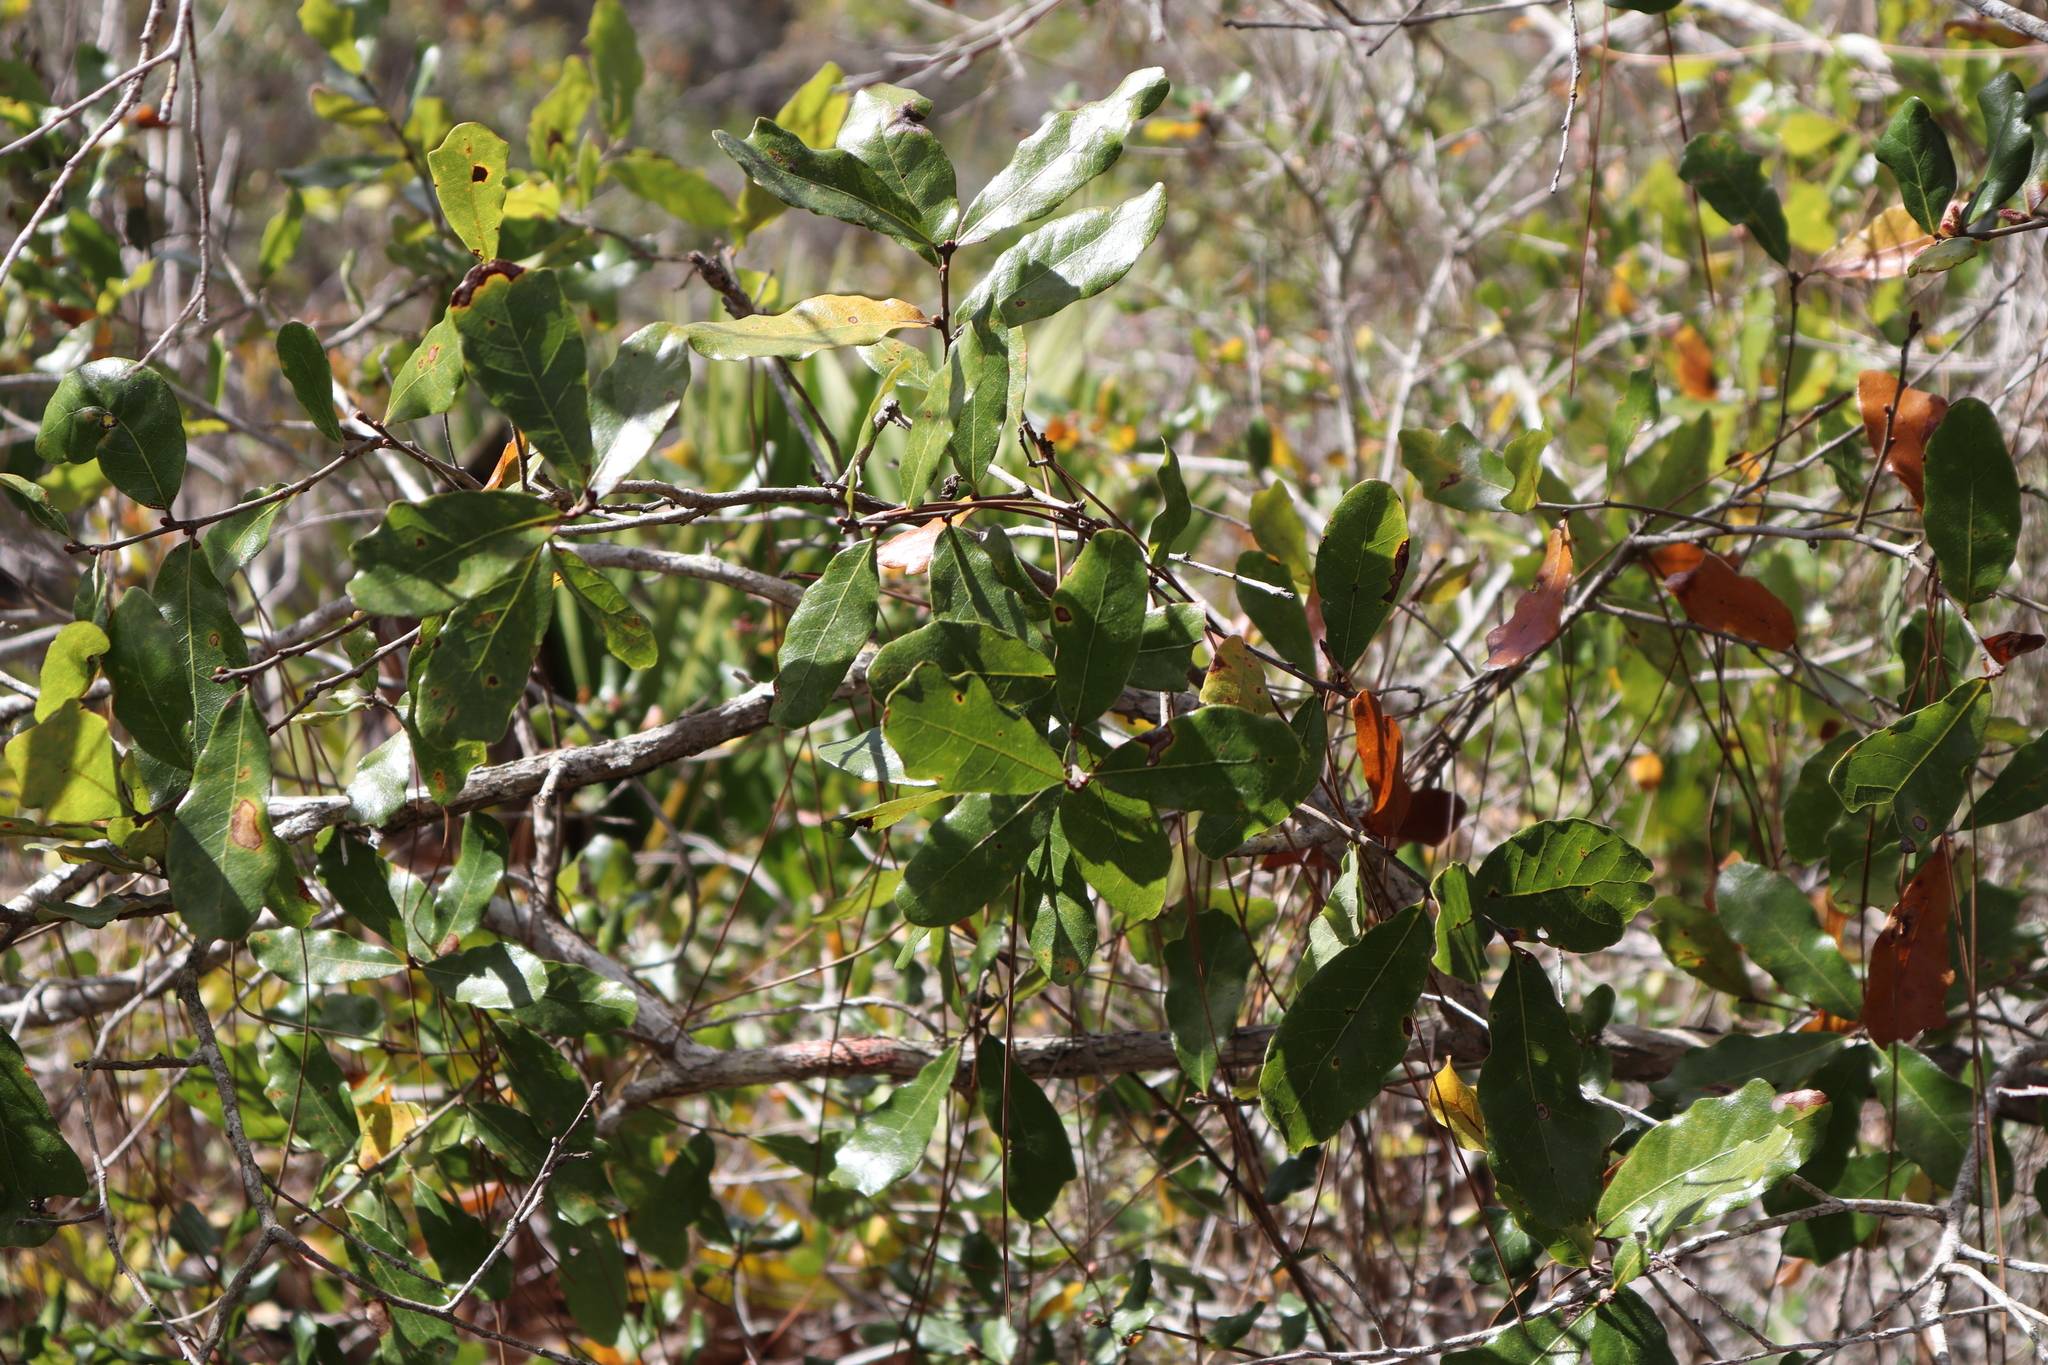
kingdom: Plantae
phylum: Tracheophyta
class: Magnoliopsida
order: Fagales
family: Fagaceae
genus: Quercus
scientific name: Quercus chapmanii
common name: Chapman oak
